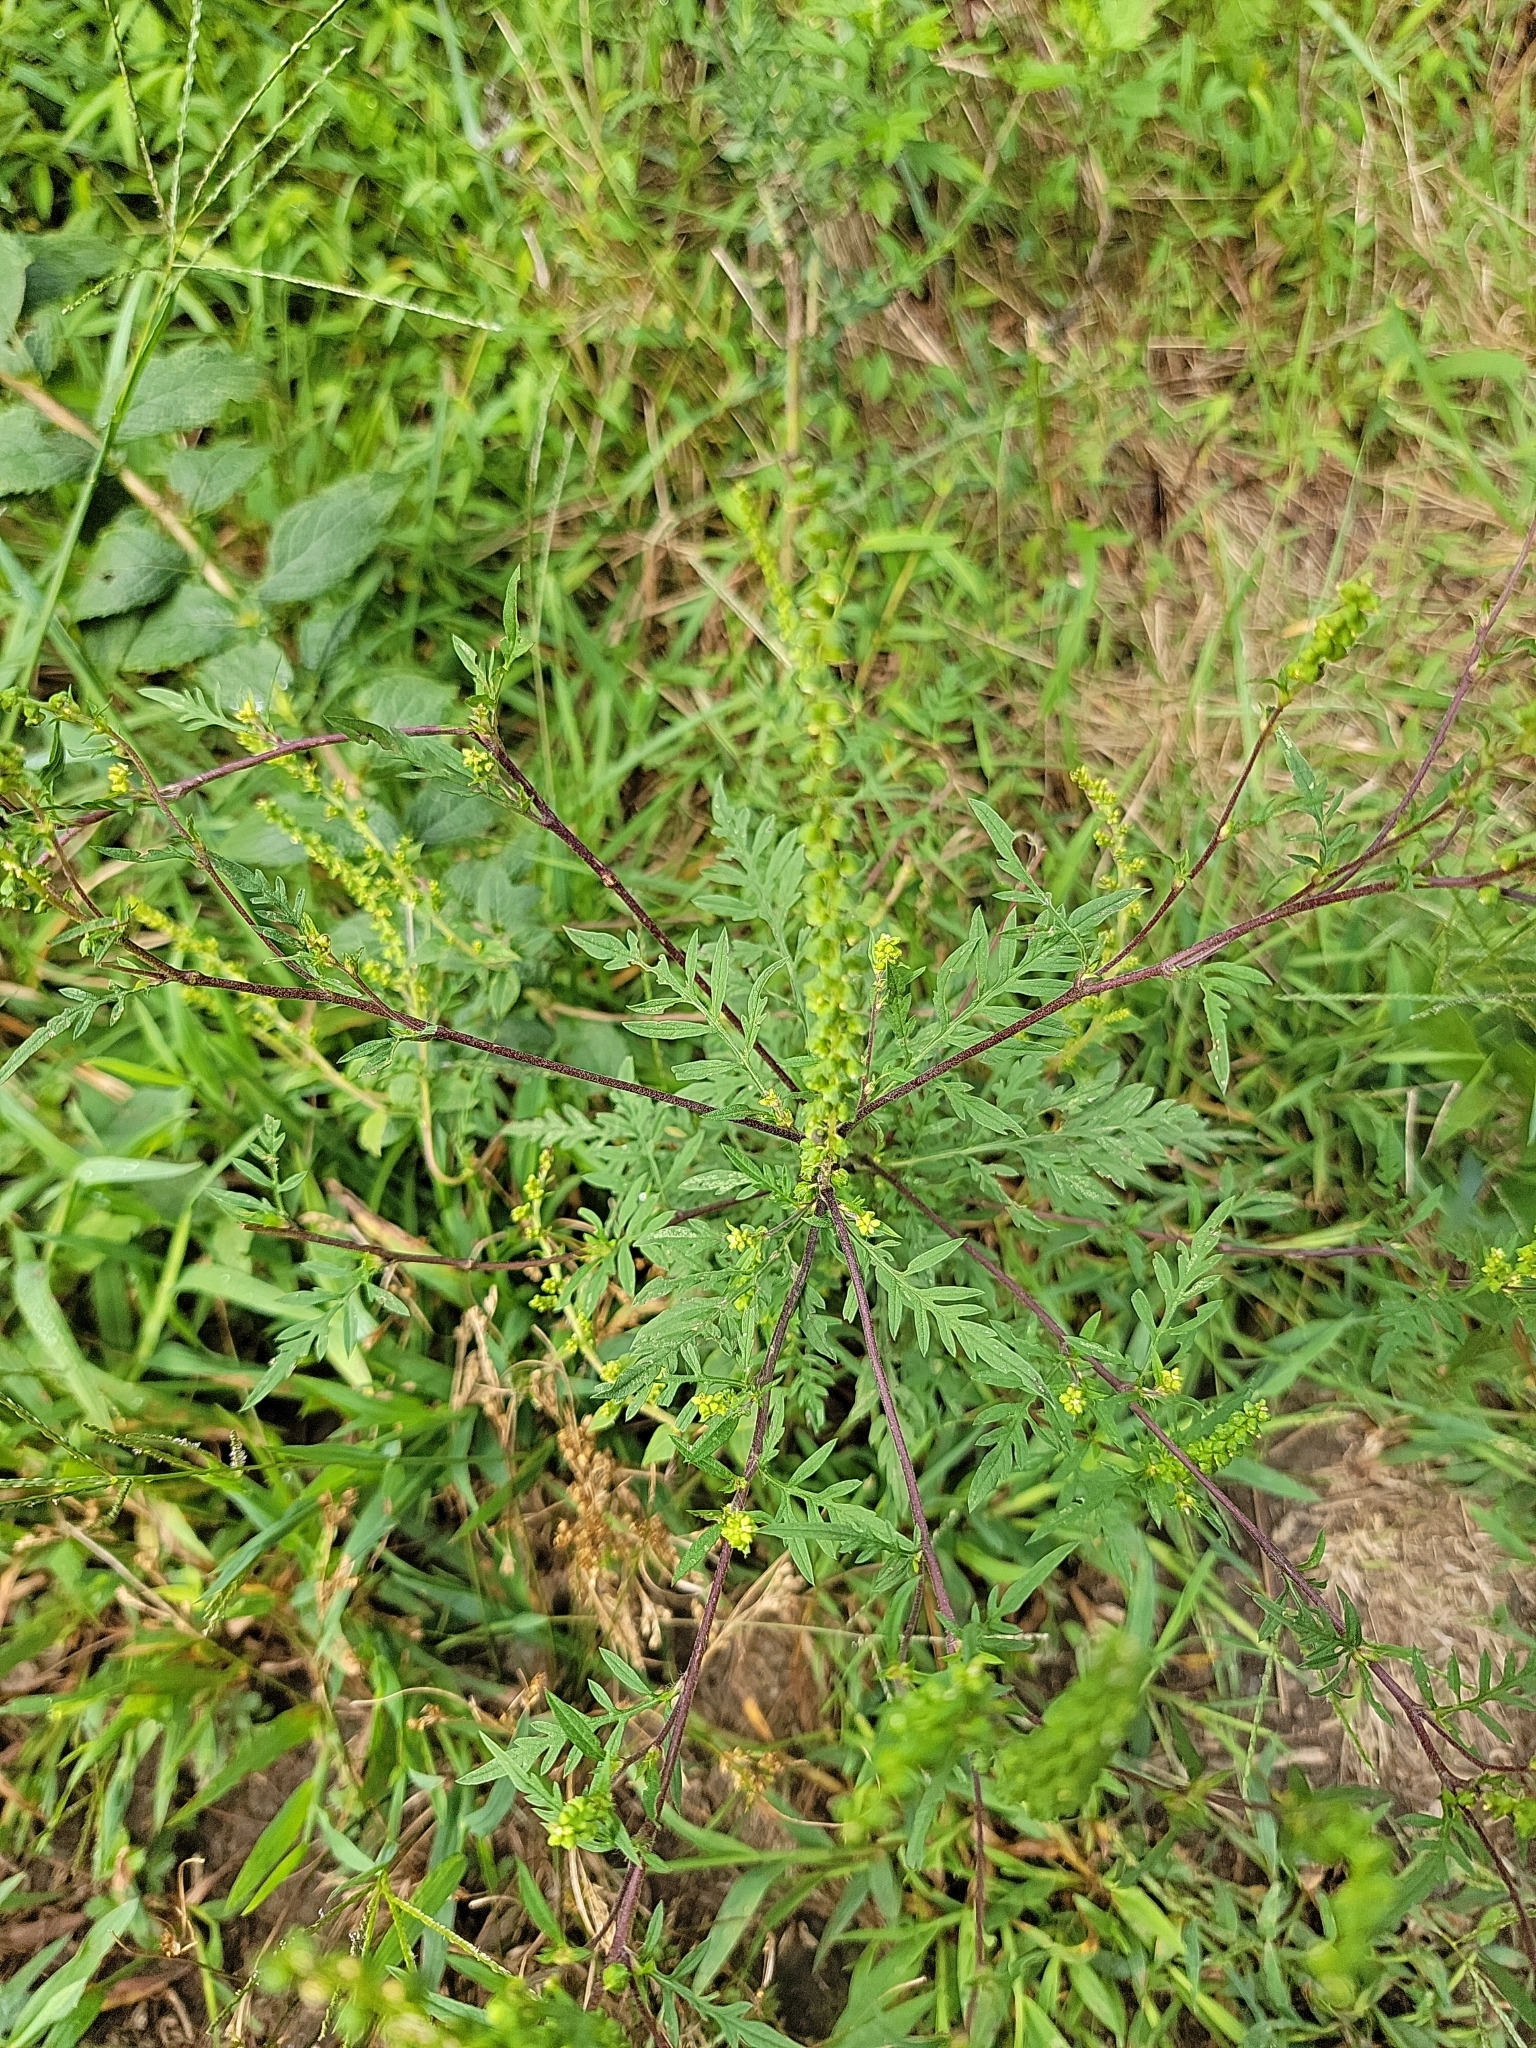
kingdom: Plantae
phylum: Tracheophyta
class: Magnoliopsida
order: Asterales
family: Asteraceae
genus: Ambrosia
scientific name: Ambrosia artemisiifolia
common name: Annual ragweed
